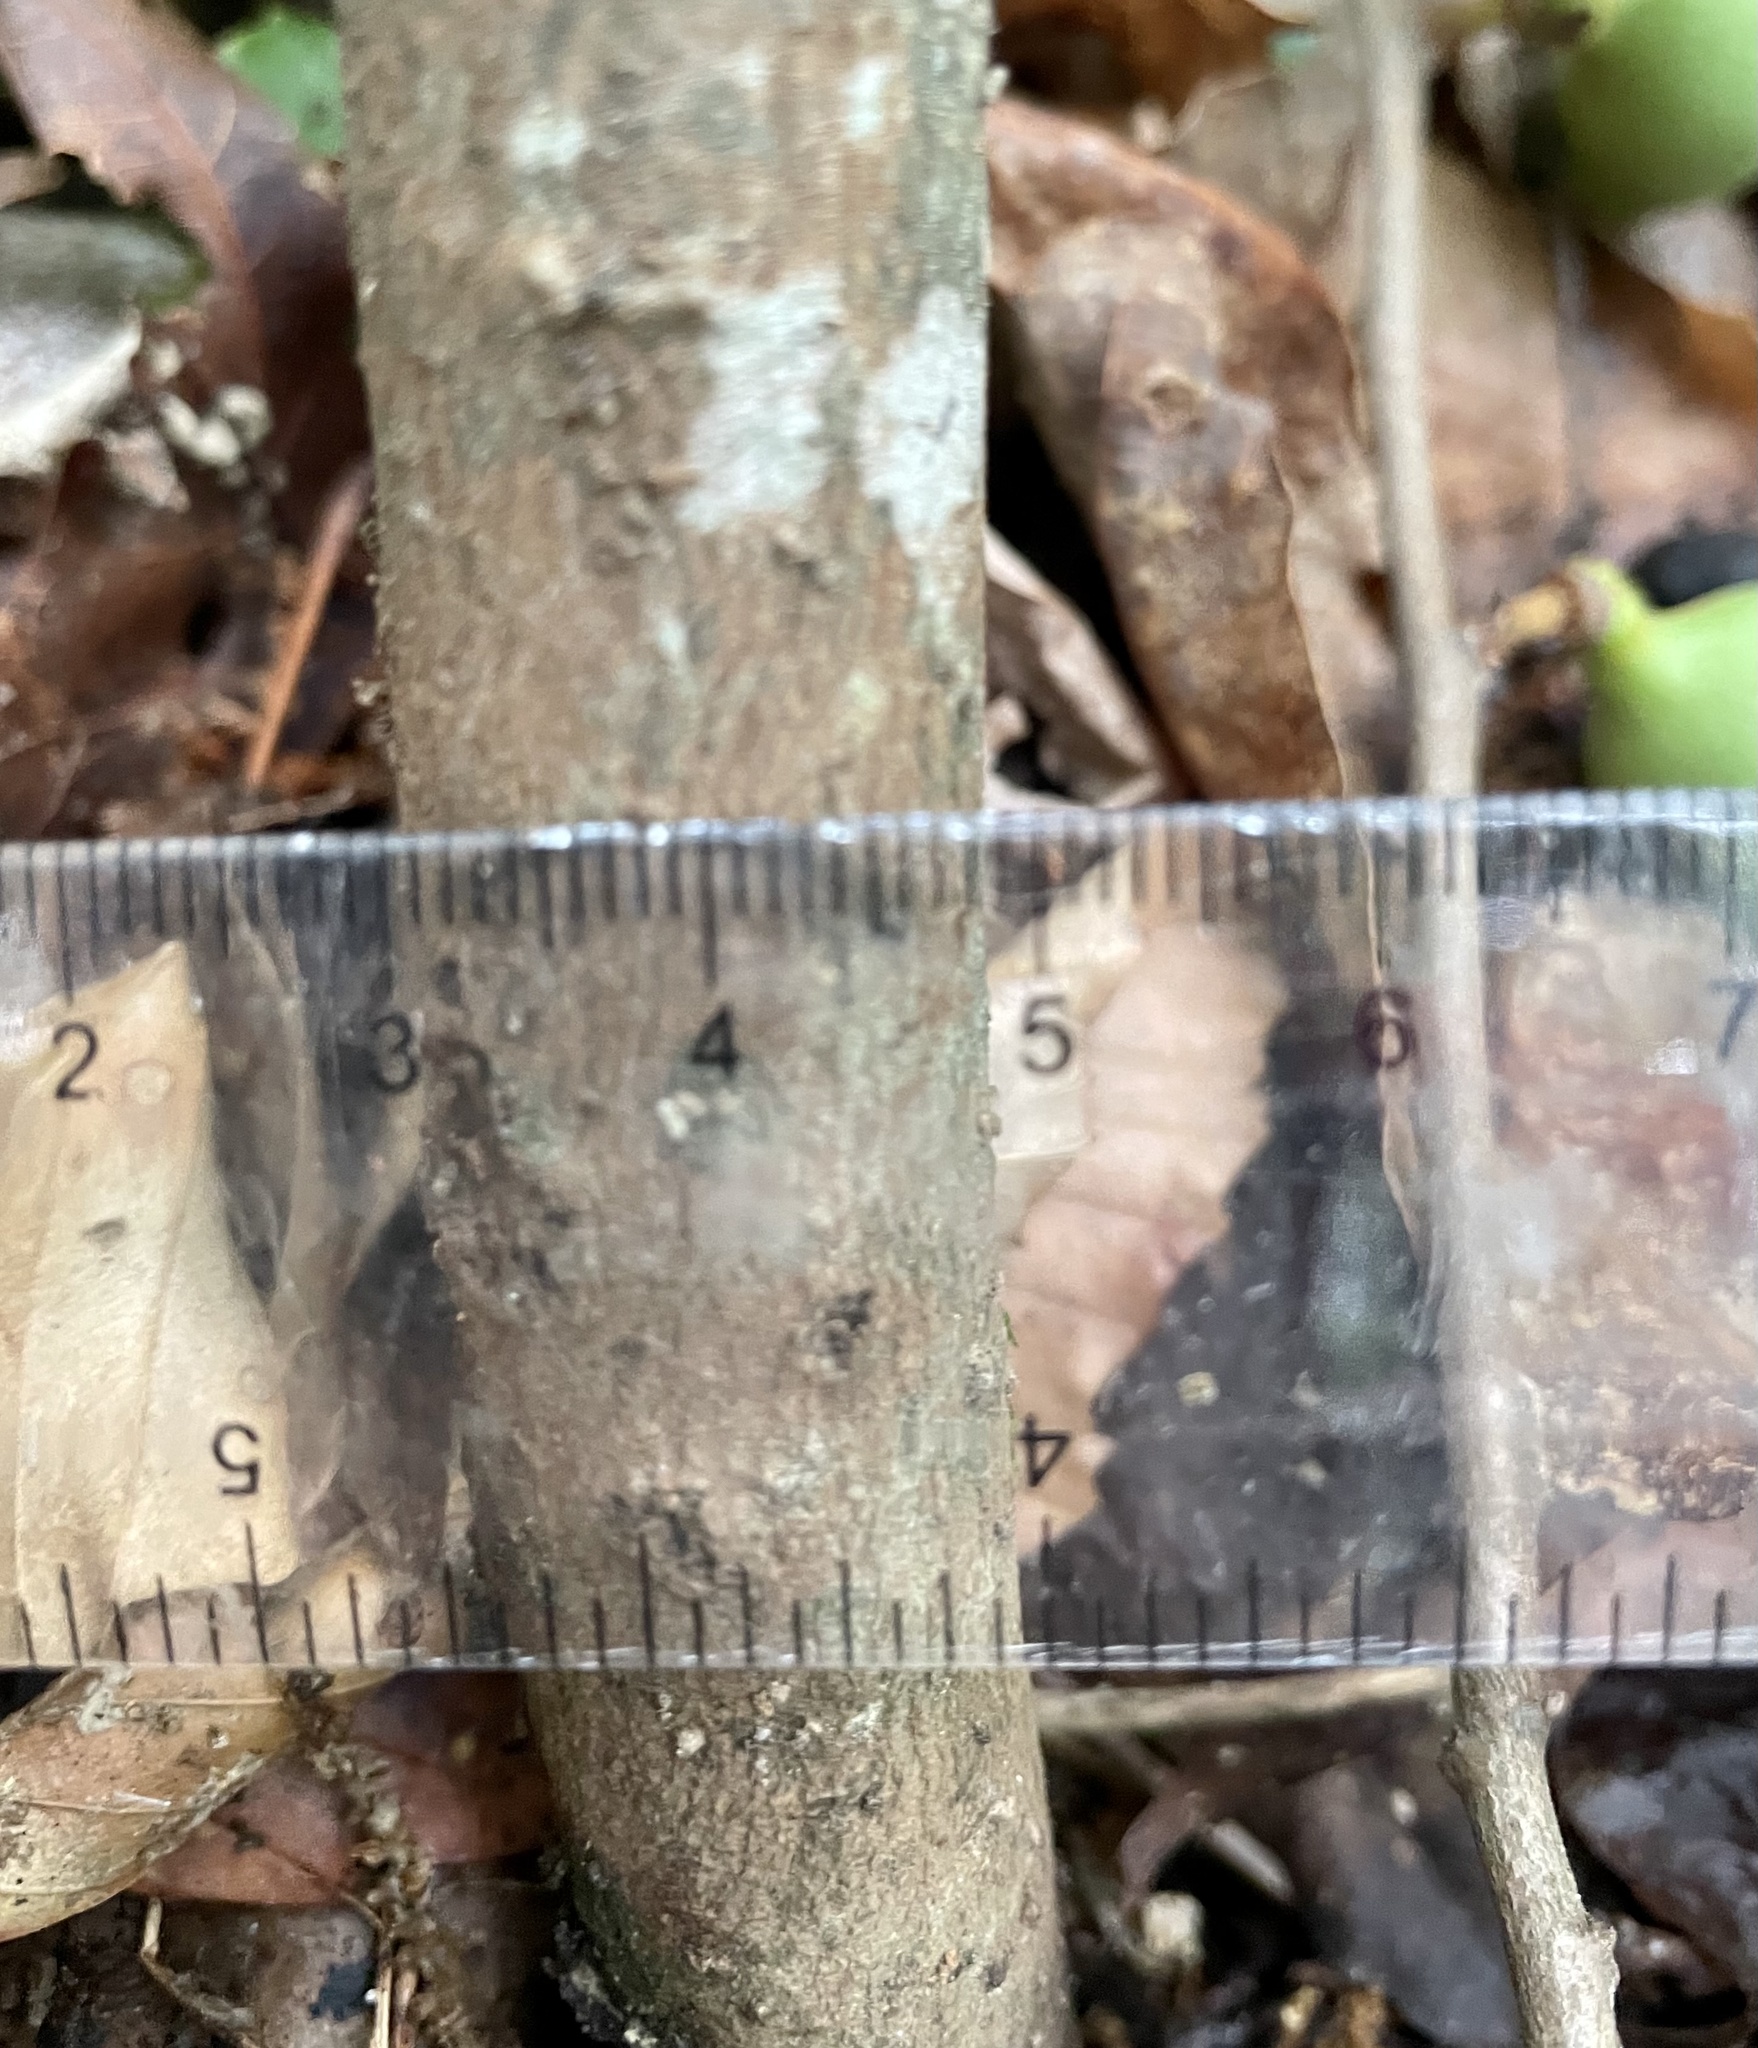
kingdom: Plantae
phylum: Tracheophyta
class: Magnoliopsida
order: Magnoliales
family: Annonaceae
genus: Asimina
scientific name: Asimina parviflora
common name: Dwarf pawpaw
